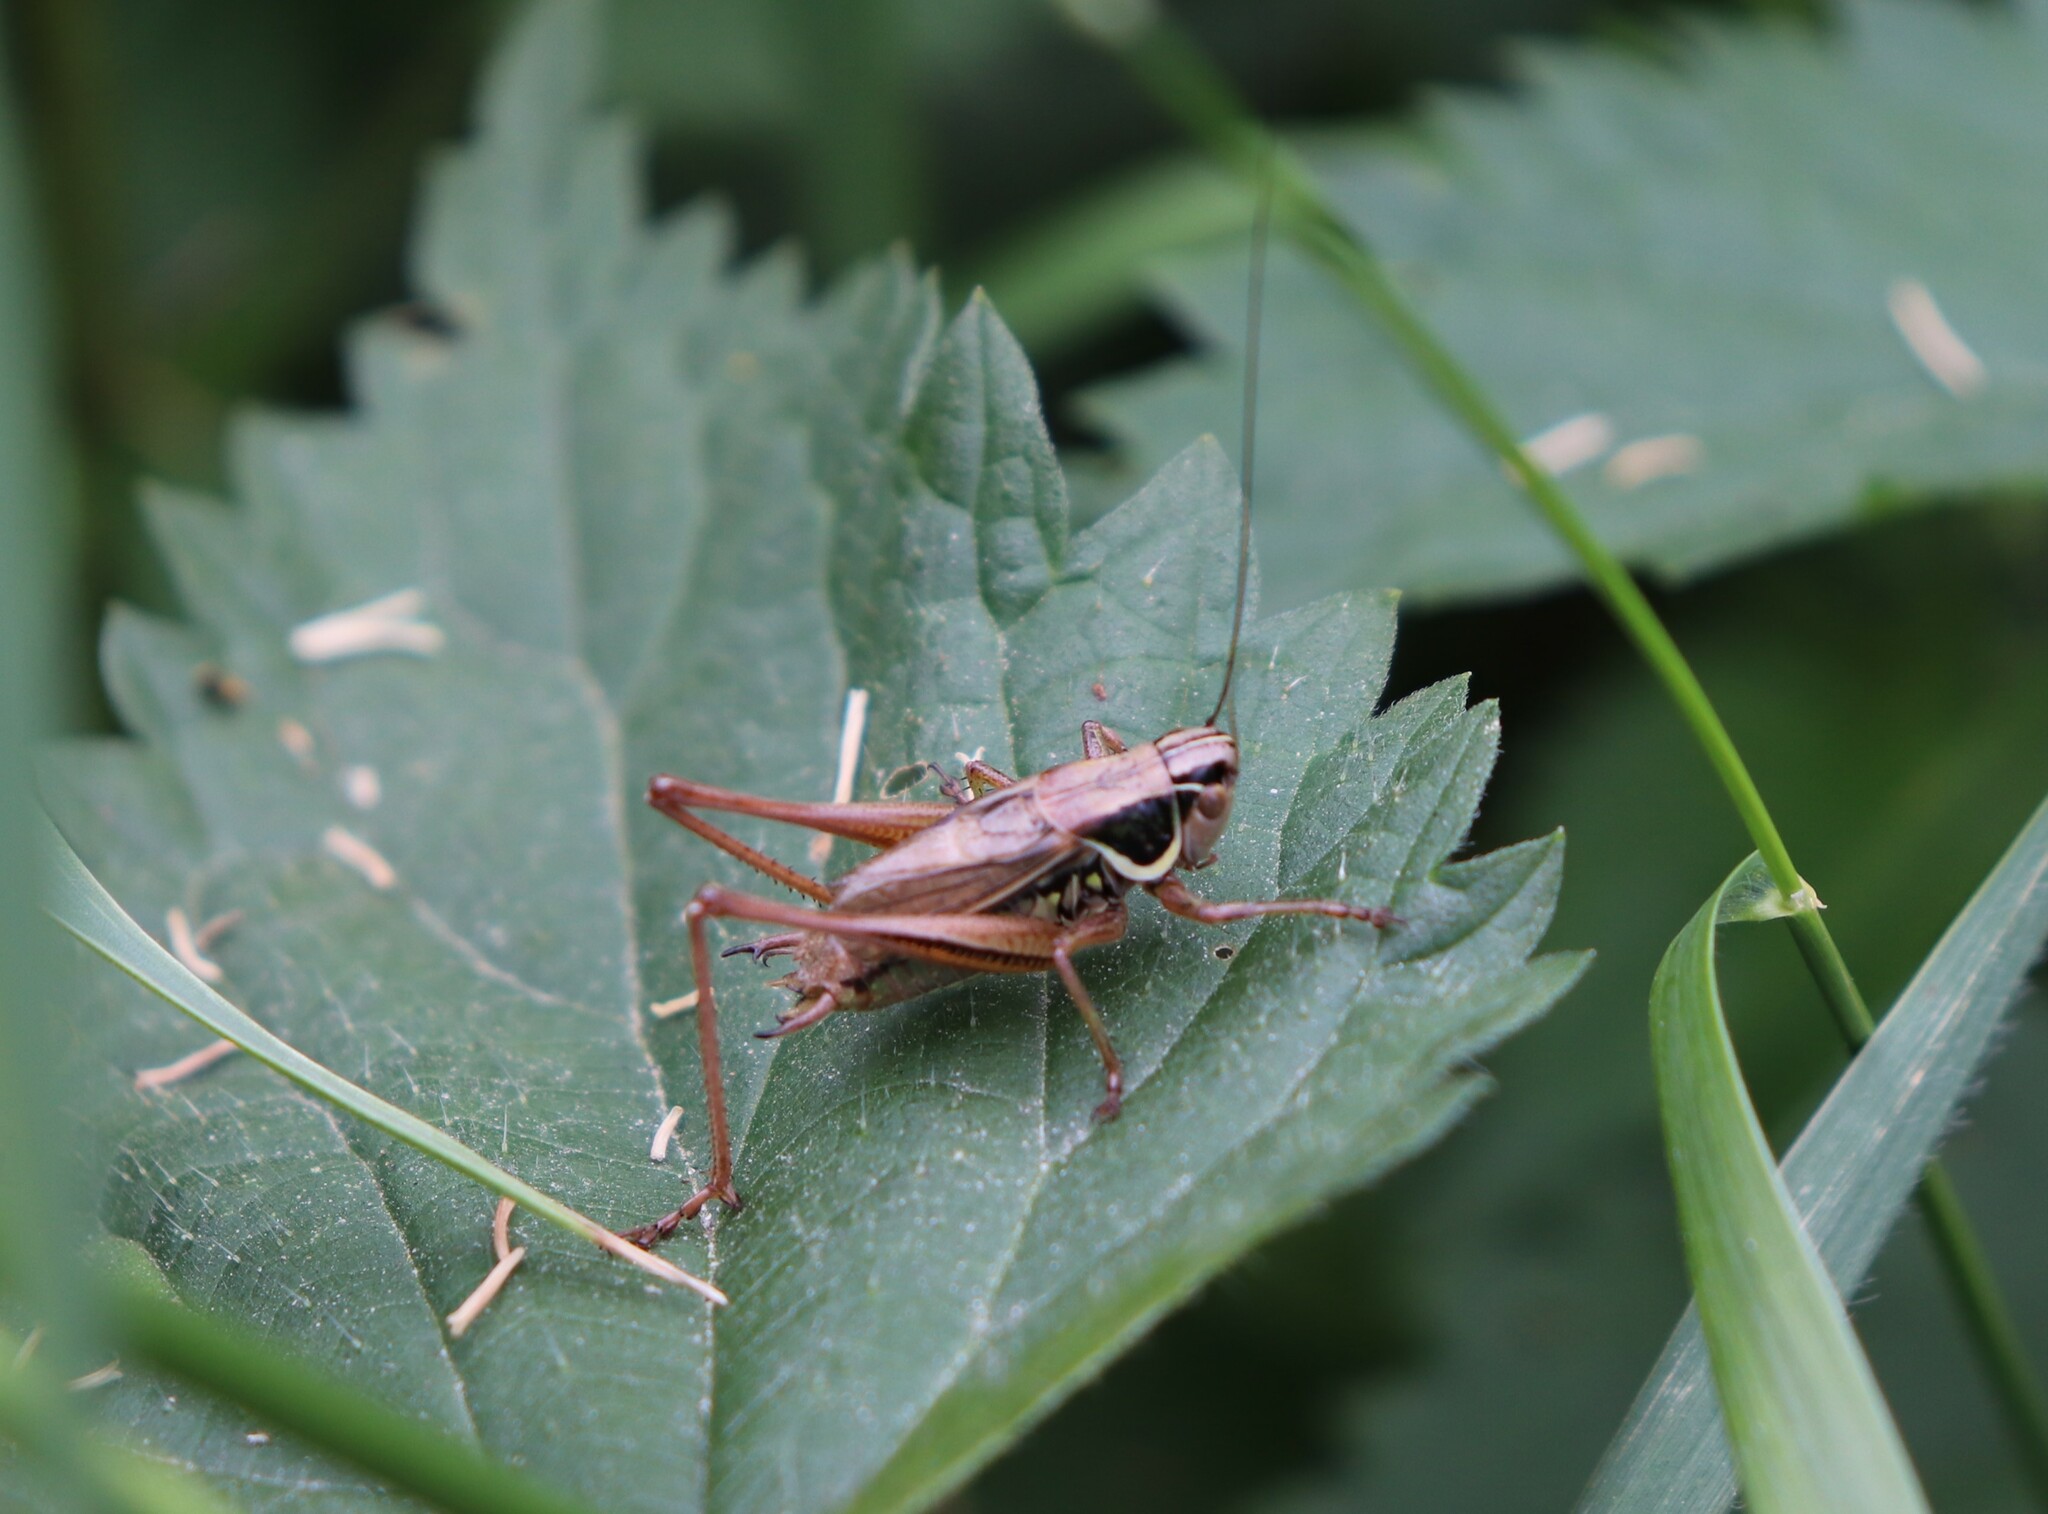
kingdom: Animalia
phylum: Arthropoda
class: Insecta
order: Orthoptera
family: Tettigoniidae
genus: Roeseliana
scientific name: Roeseliana roeselii
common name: Roesel's bush cricket
